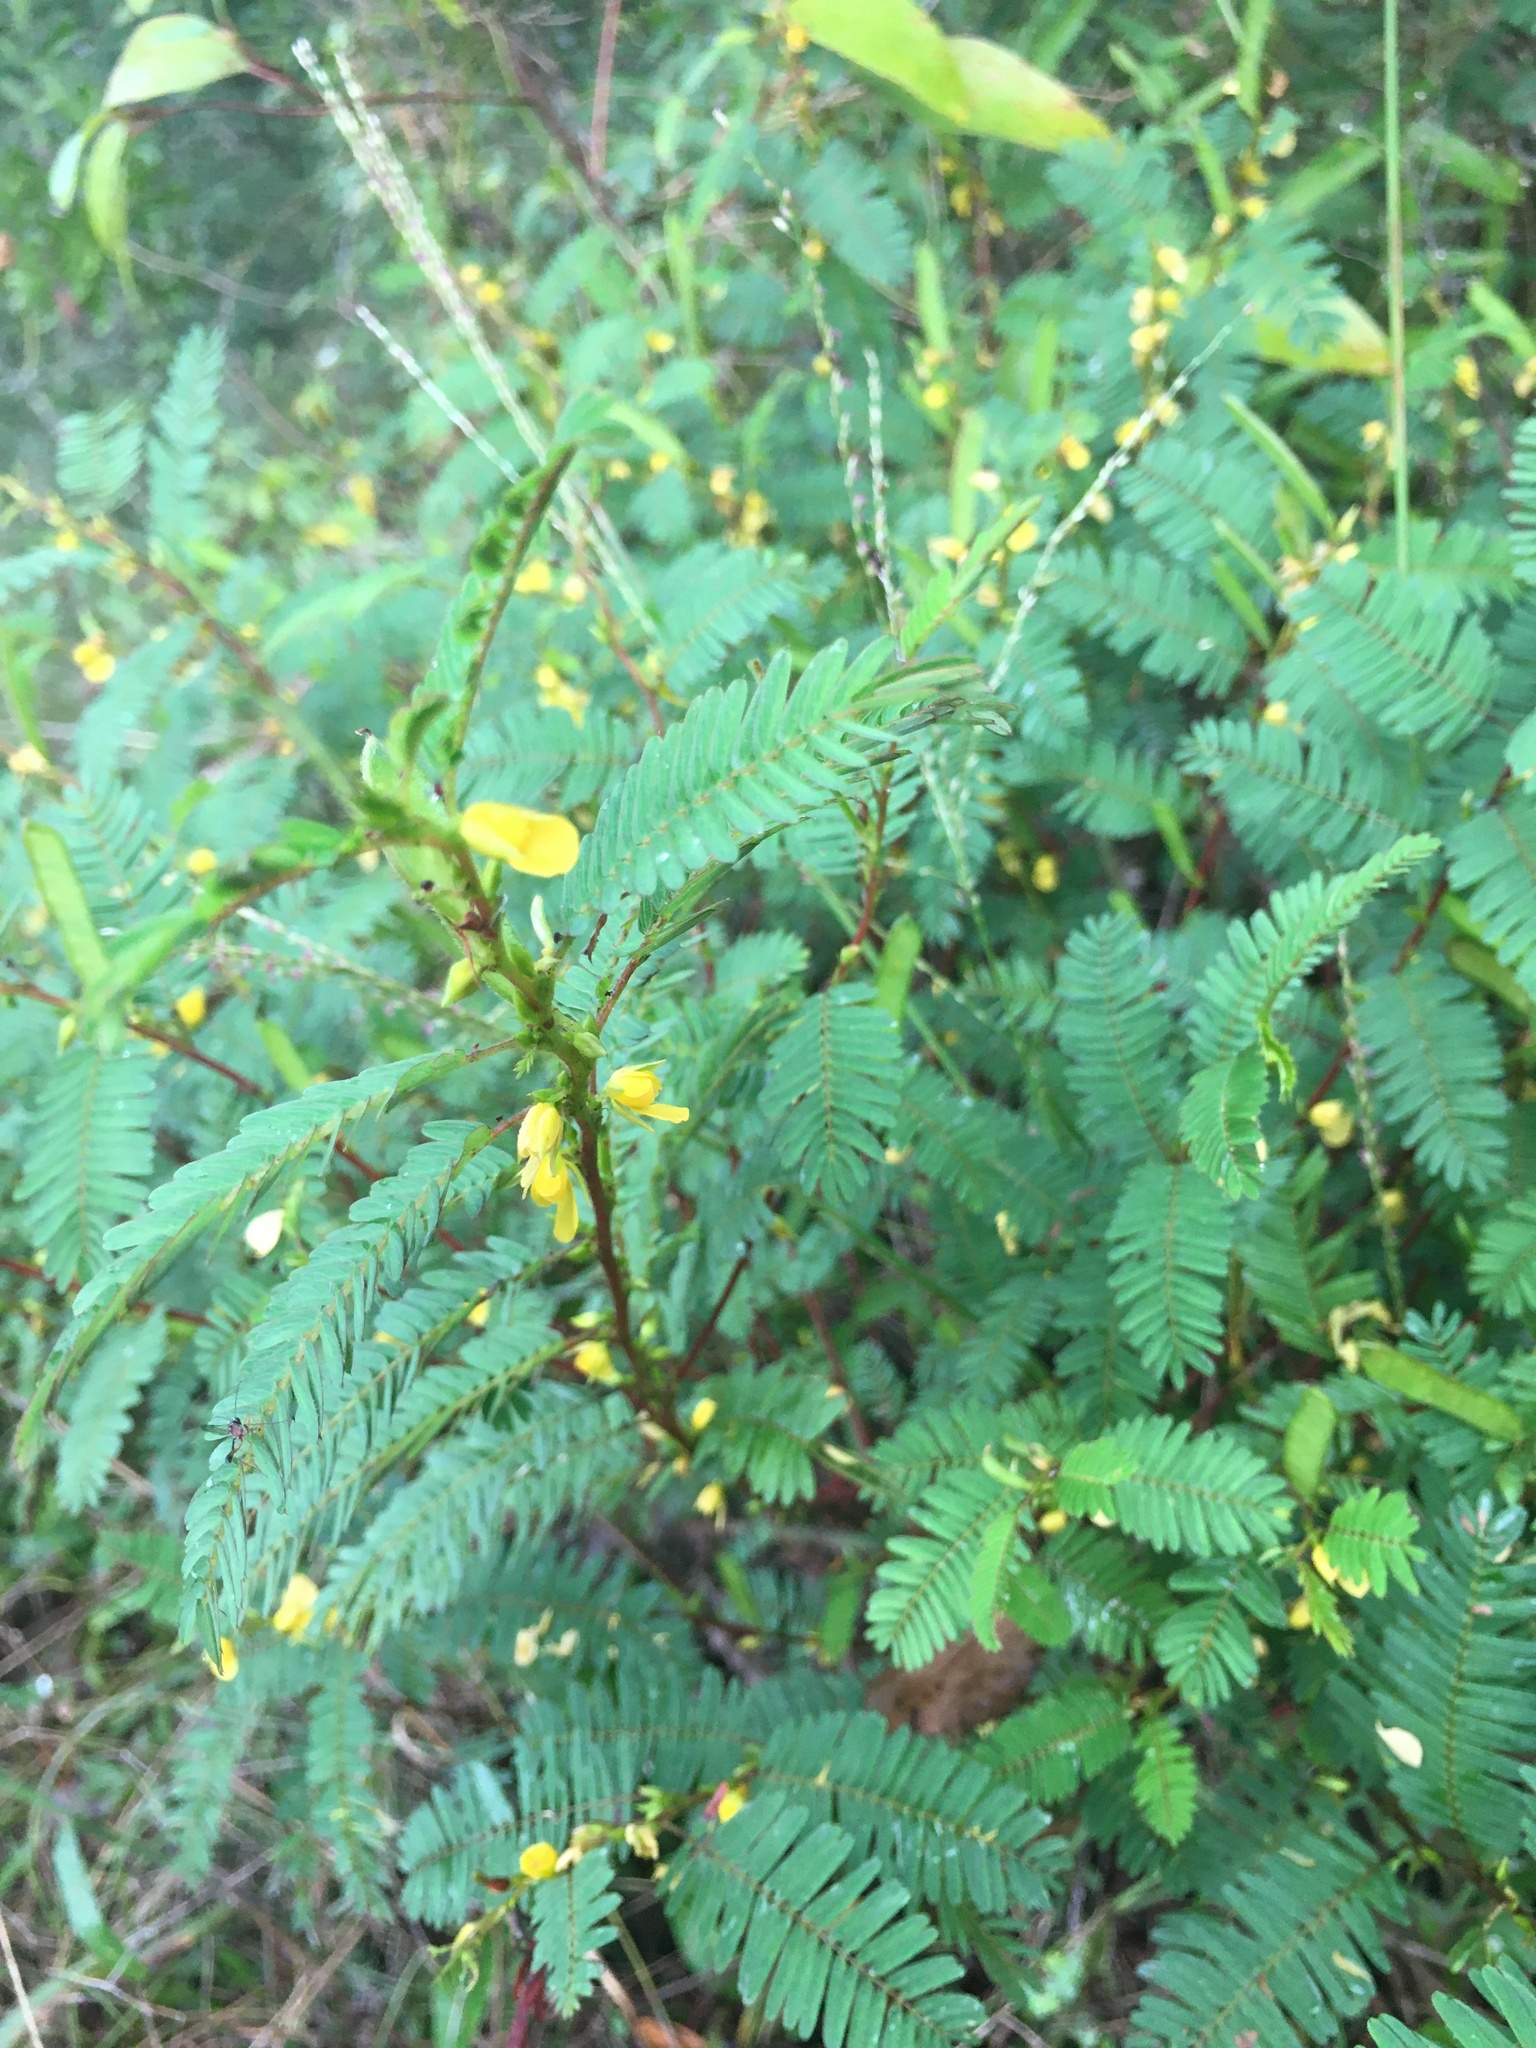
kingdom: Plantae
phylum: Tracheophyta
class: Magnoliopsida
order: Fabales
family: Fabaceae
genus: Chamaecrista
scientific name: Chamaecrista nictitans
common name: Sensitive cassia
